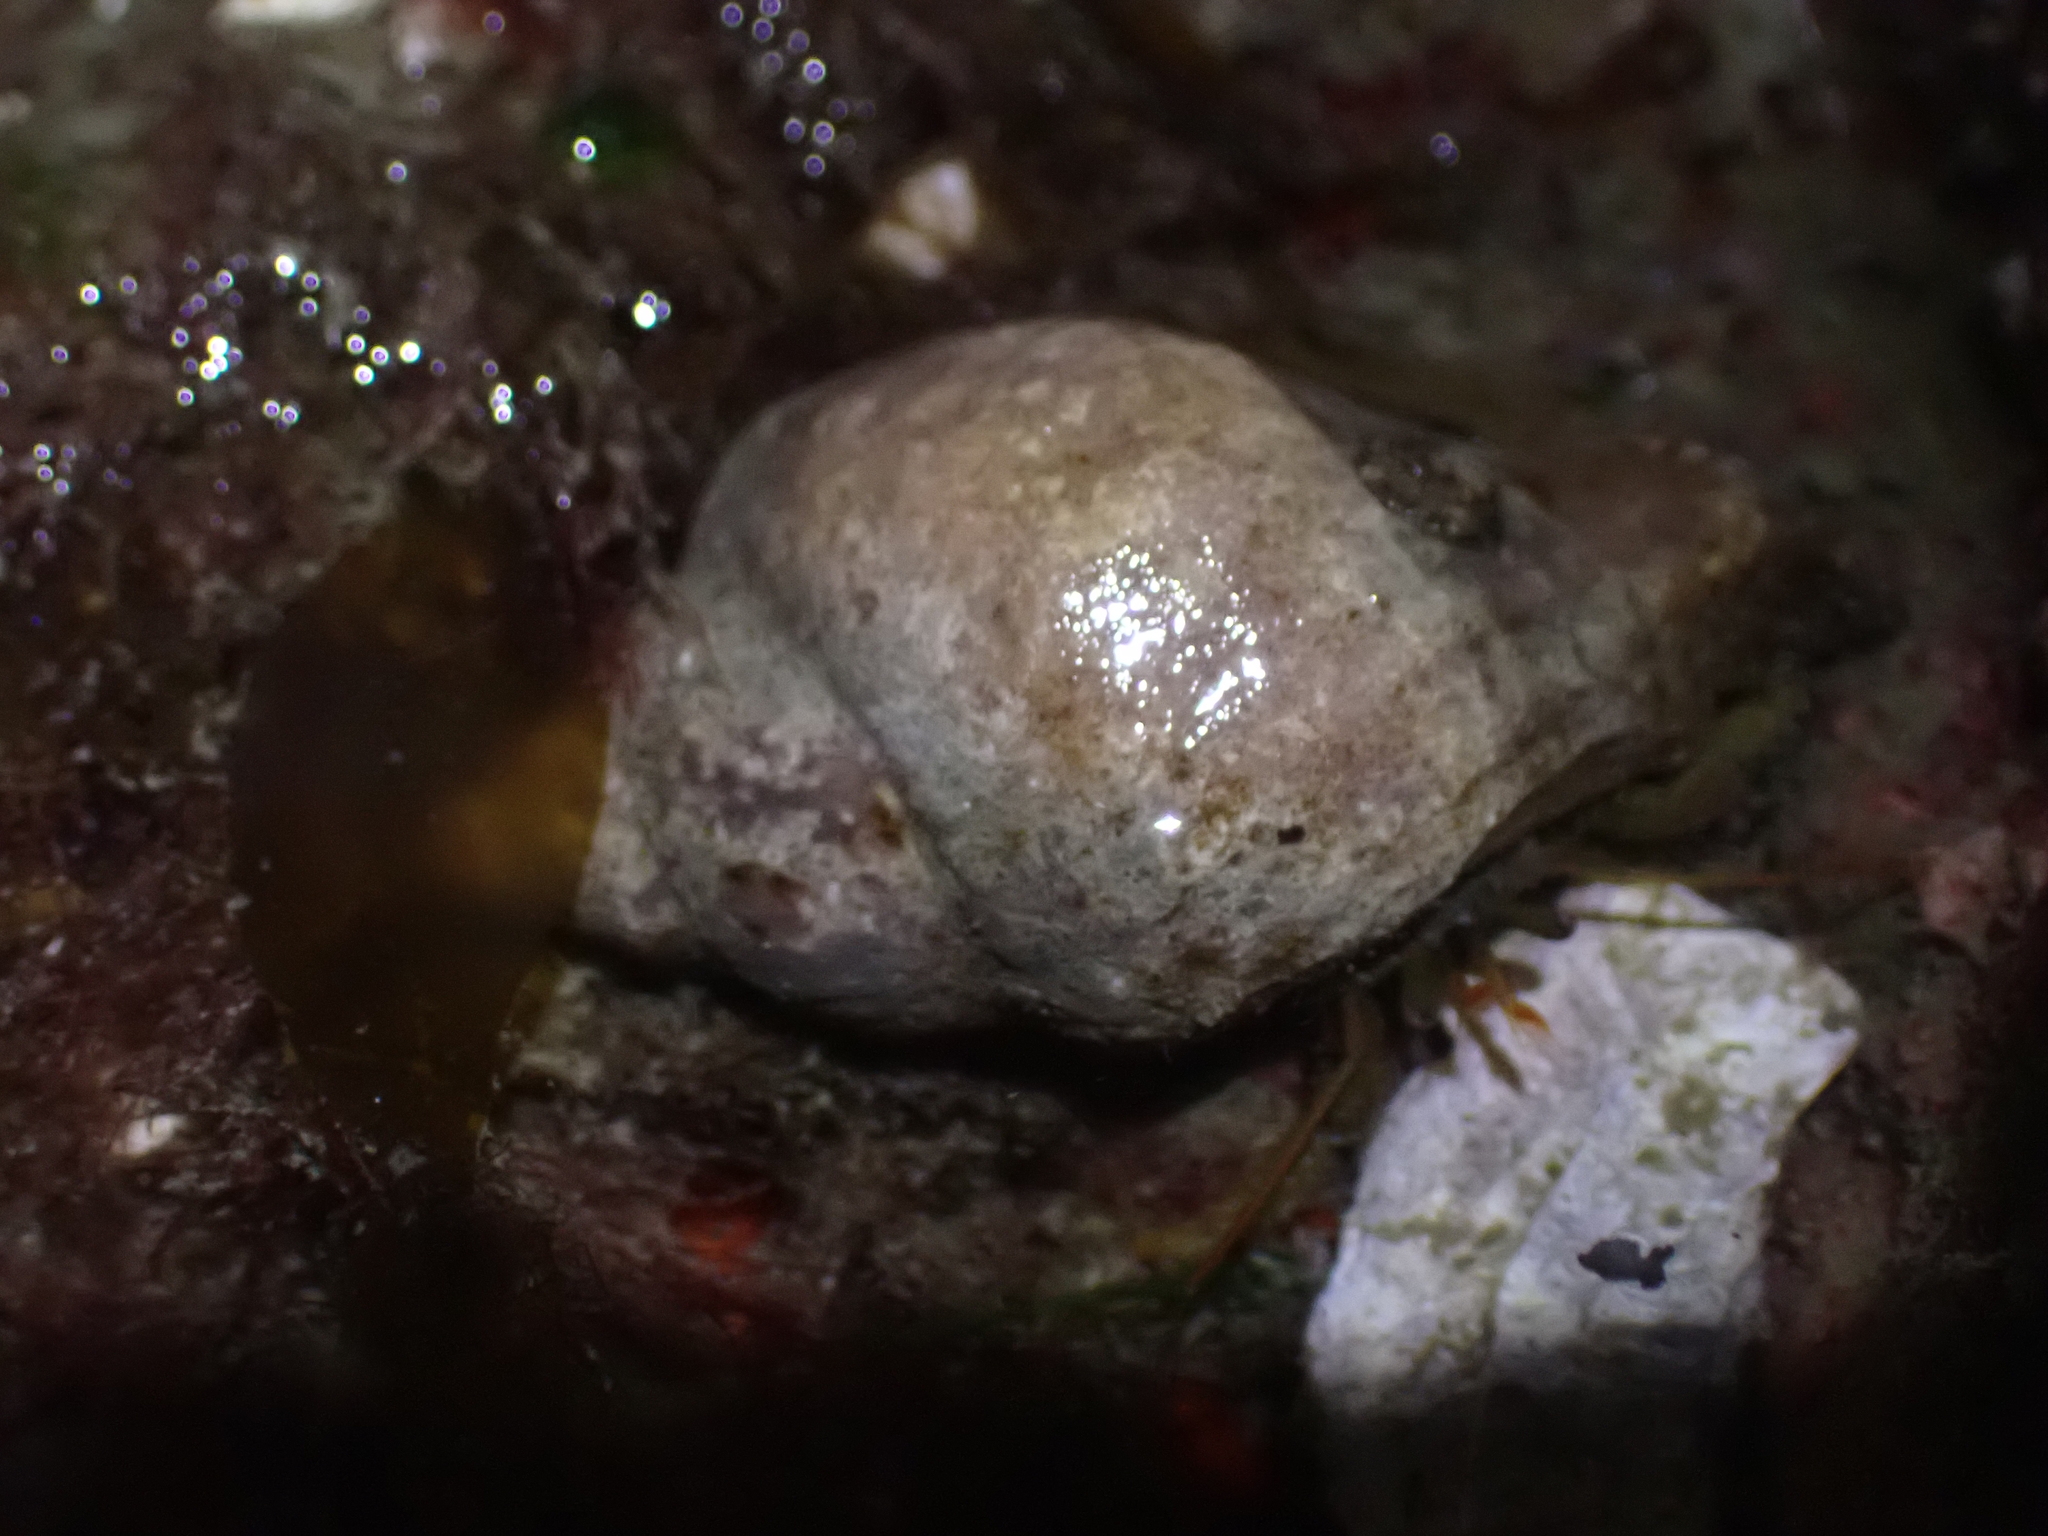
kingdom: Animalia
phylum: Mollusca
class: Gastropoda
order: Neogastropoda
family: Muricidae
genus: Nucella
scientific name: Nucella lamellosa
